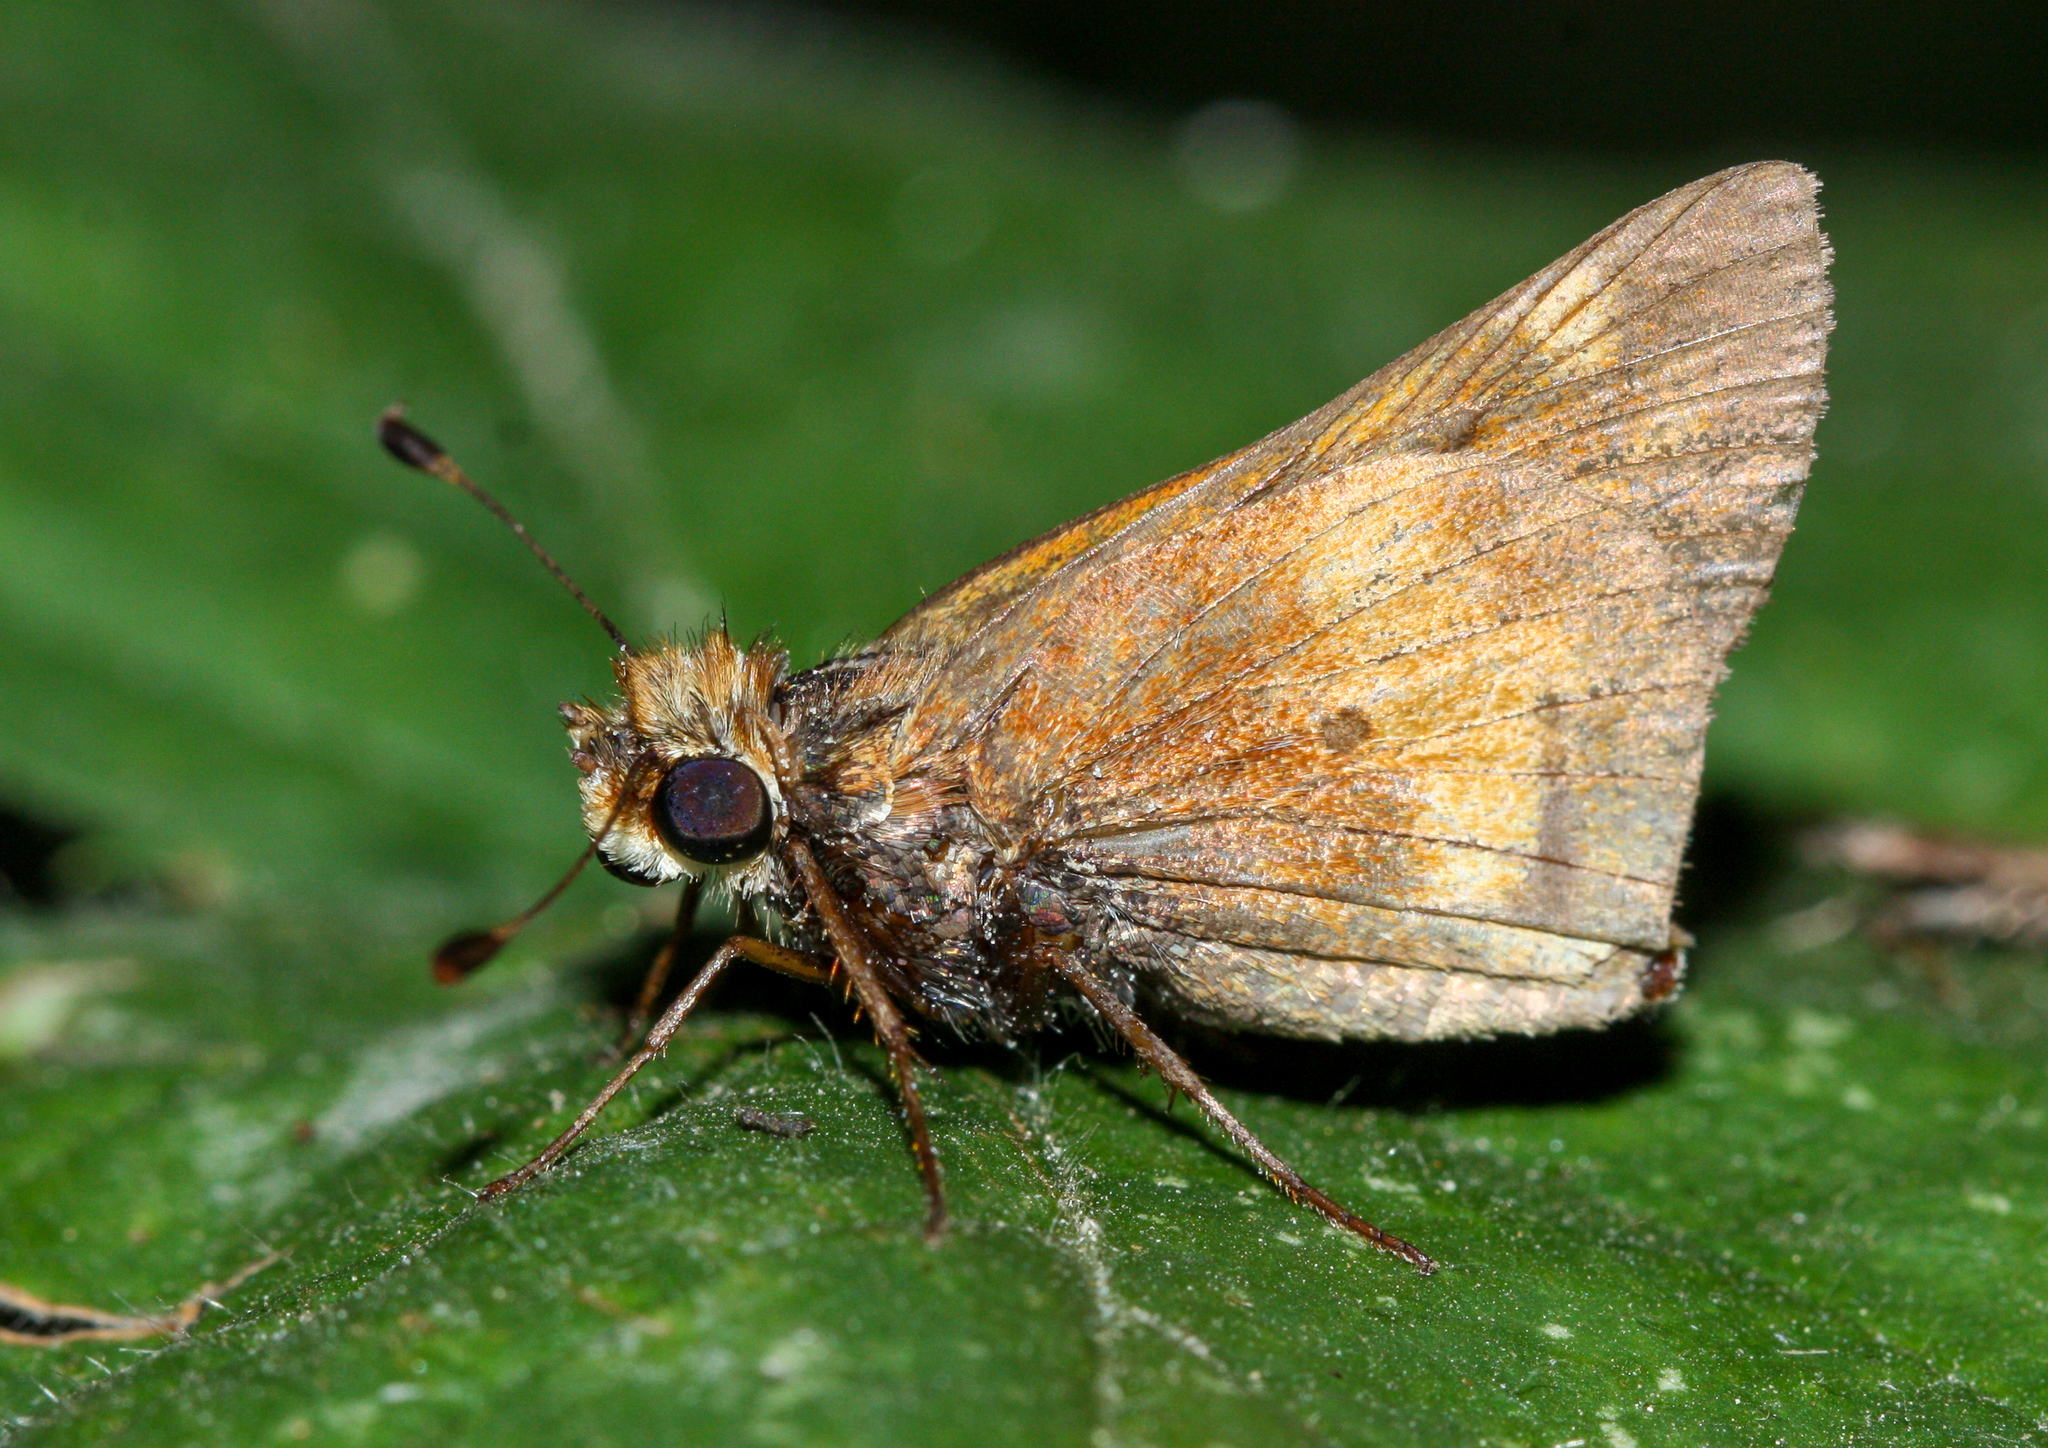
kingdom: Animalia
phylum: Arthropoda
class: Insecta
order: Lepidoptera
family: Hesperiidae
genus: Lon
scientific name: Lon melane
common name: Umber skipper
